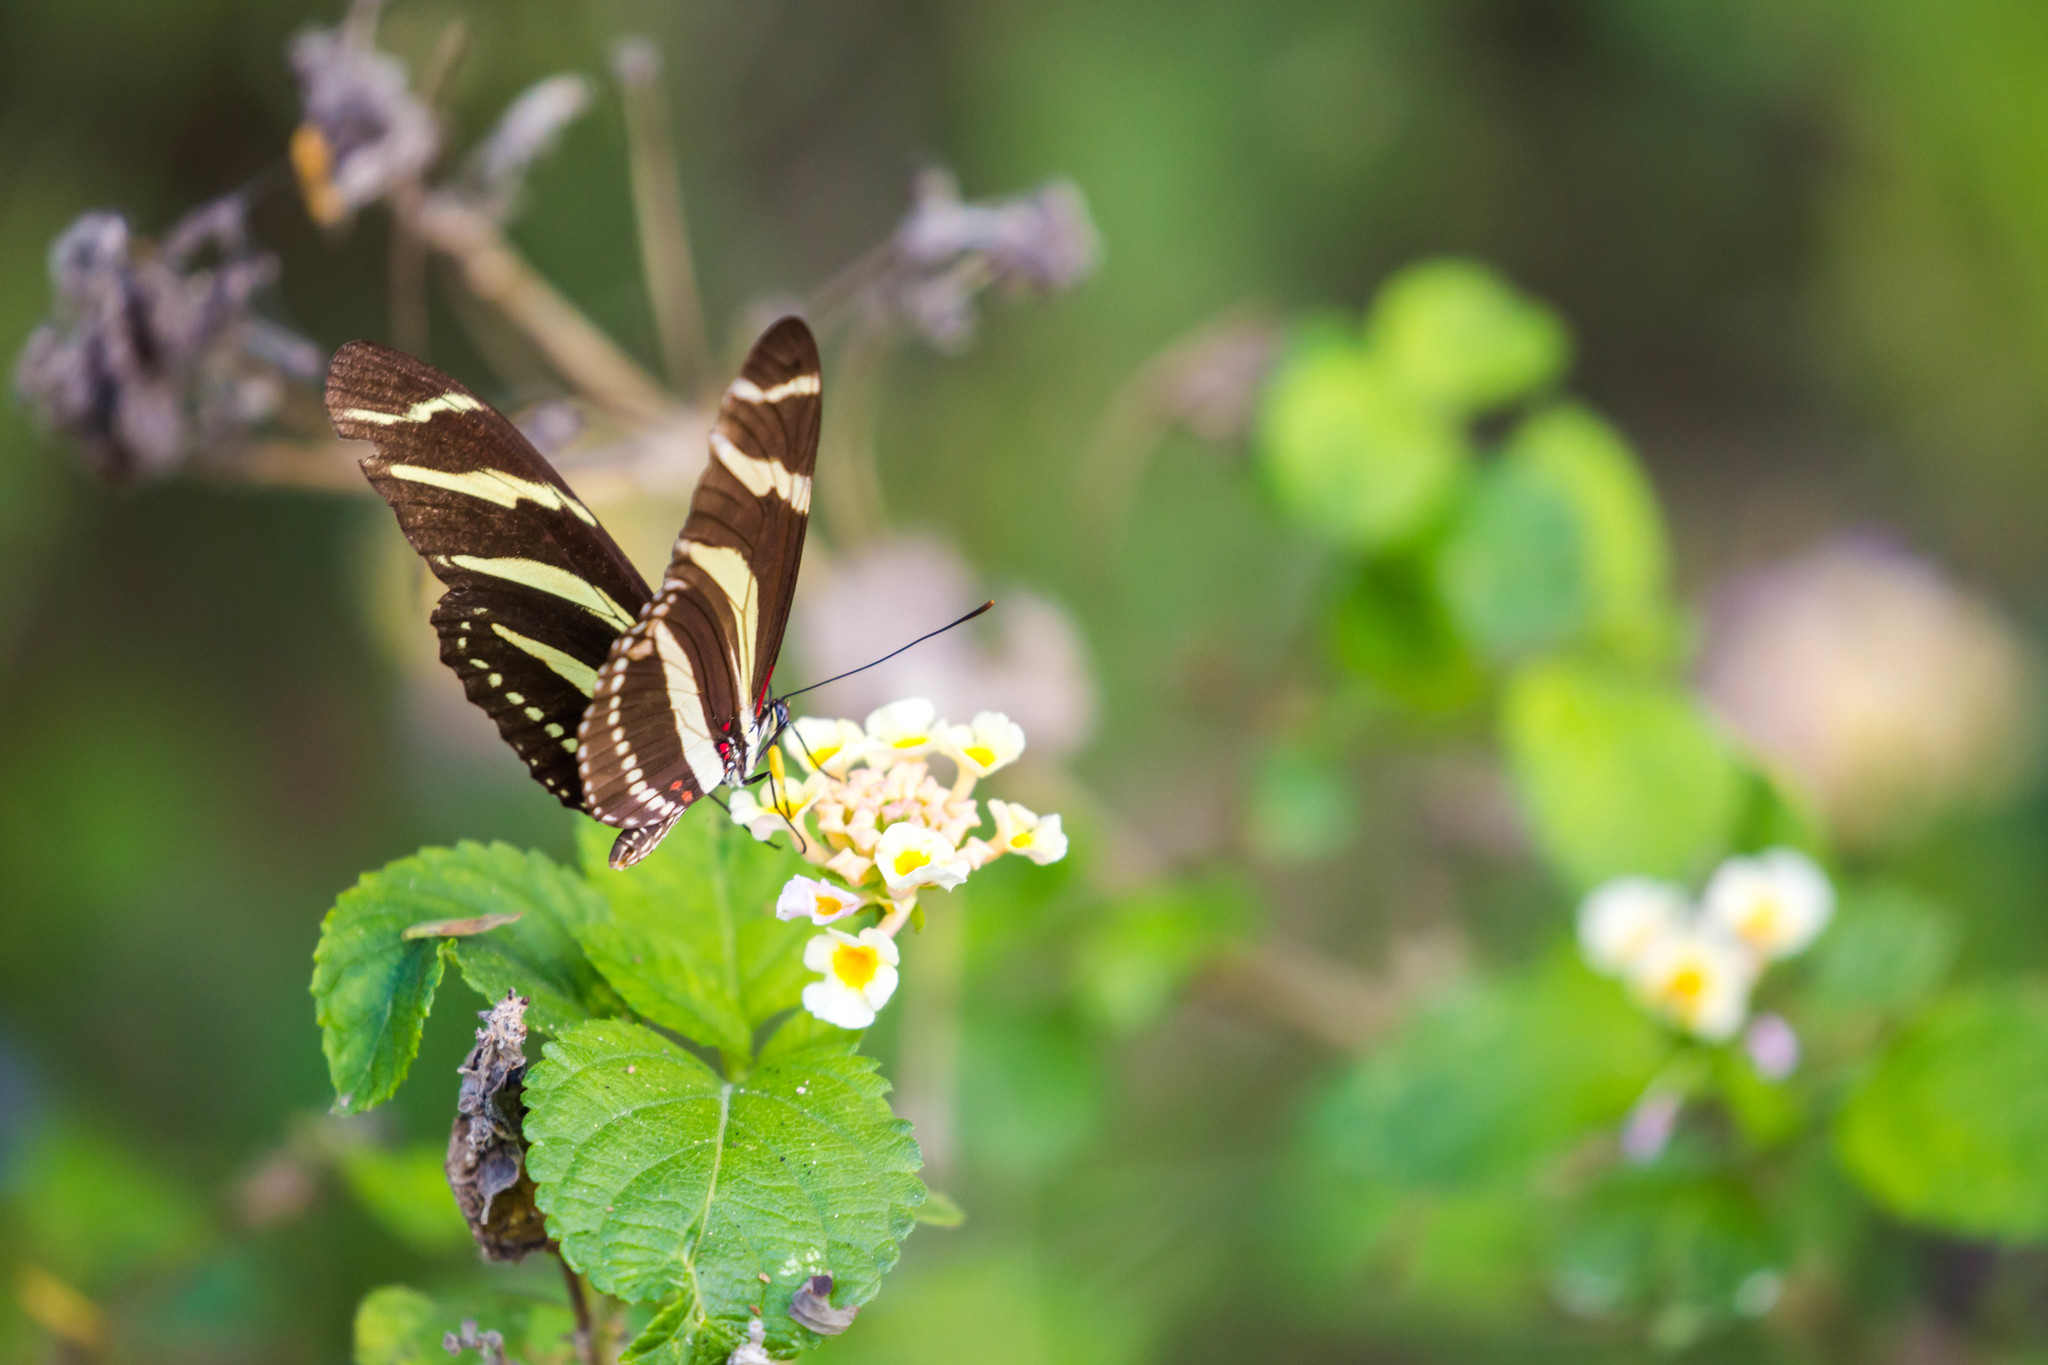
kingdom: Animalia
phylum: Arthropoda
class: Insecta
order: Lepidoptera
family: Nymphalidae
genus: Heliconius
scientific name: Heliconius charithonia
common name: Zebra long wing
